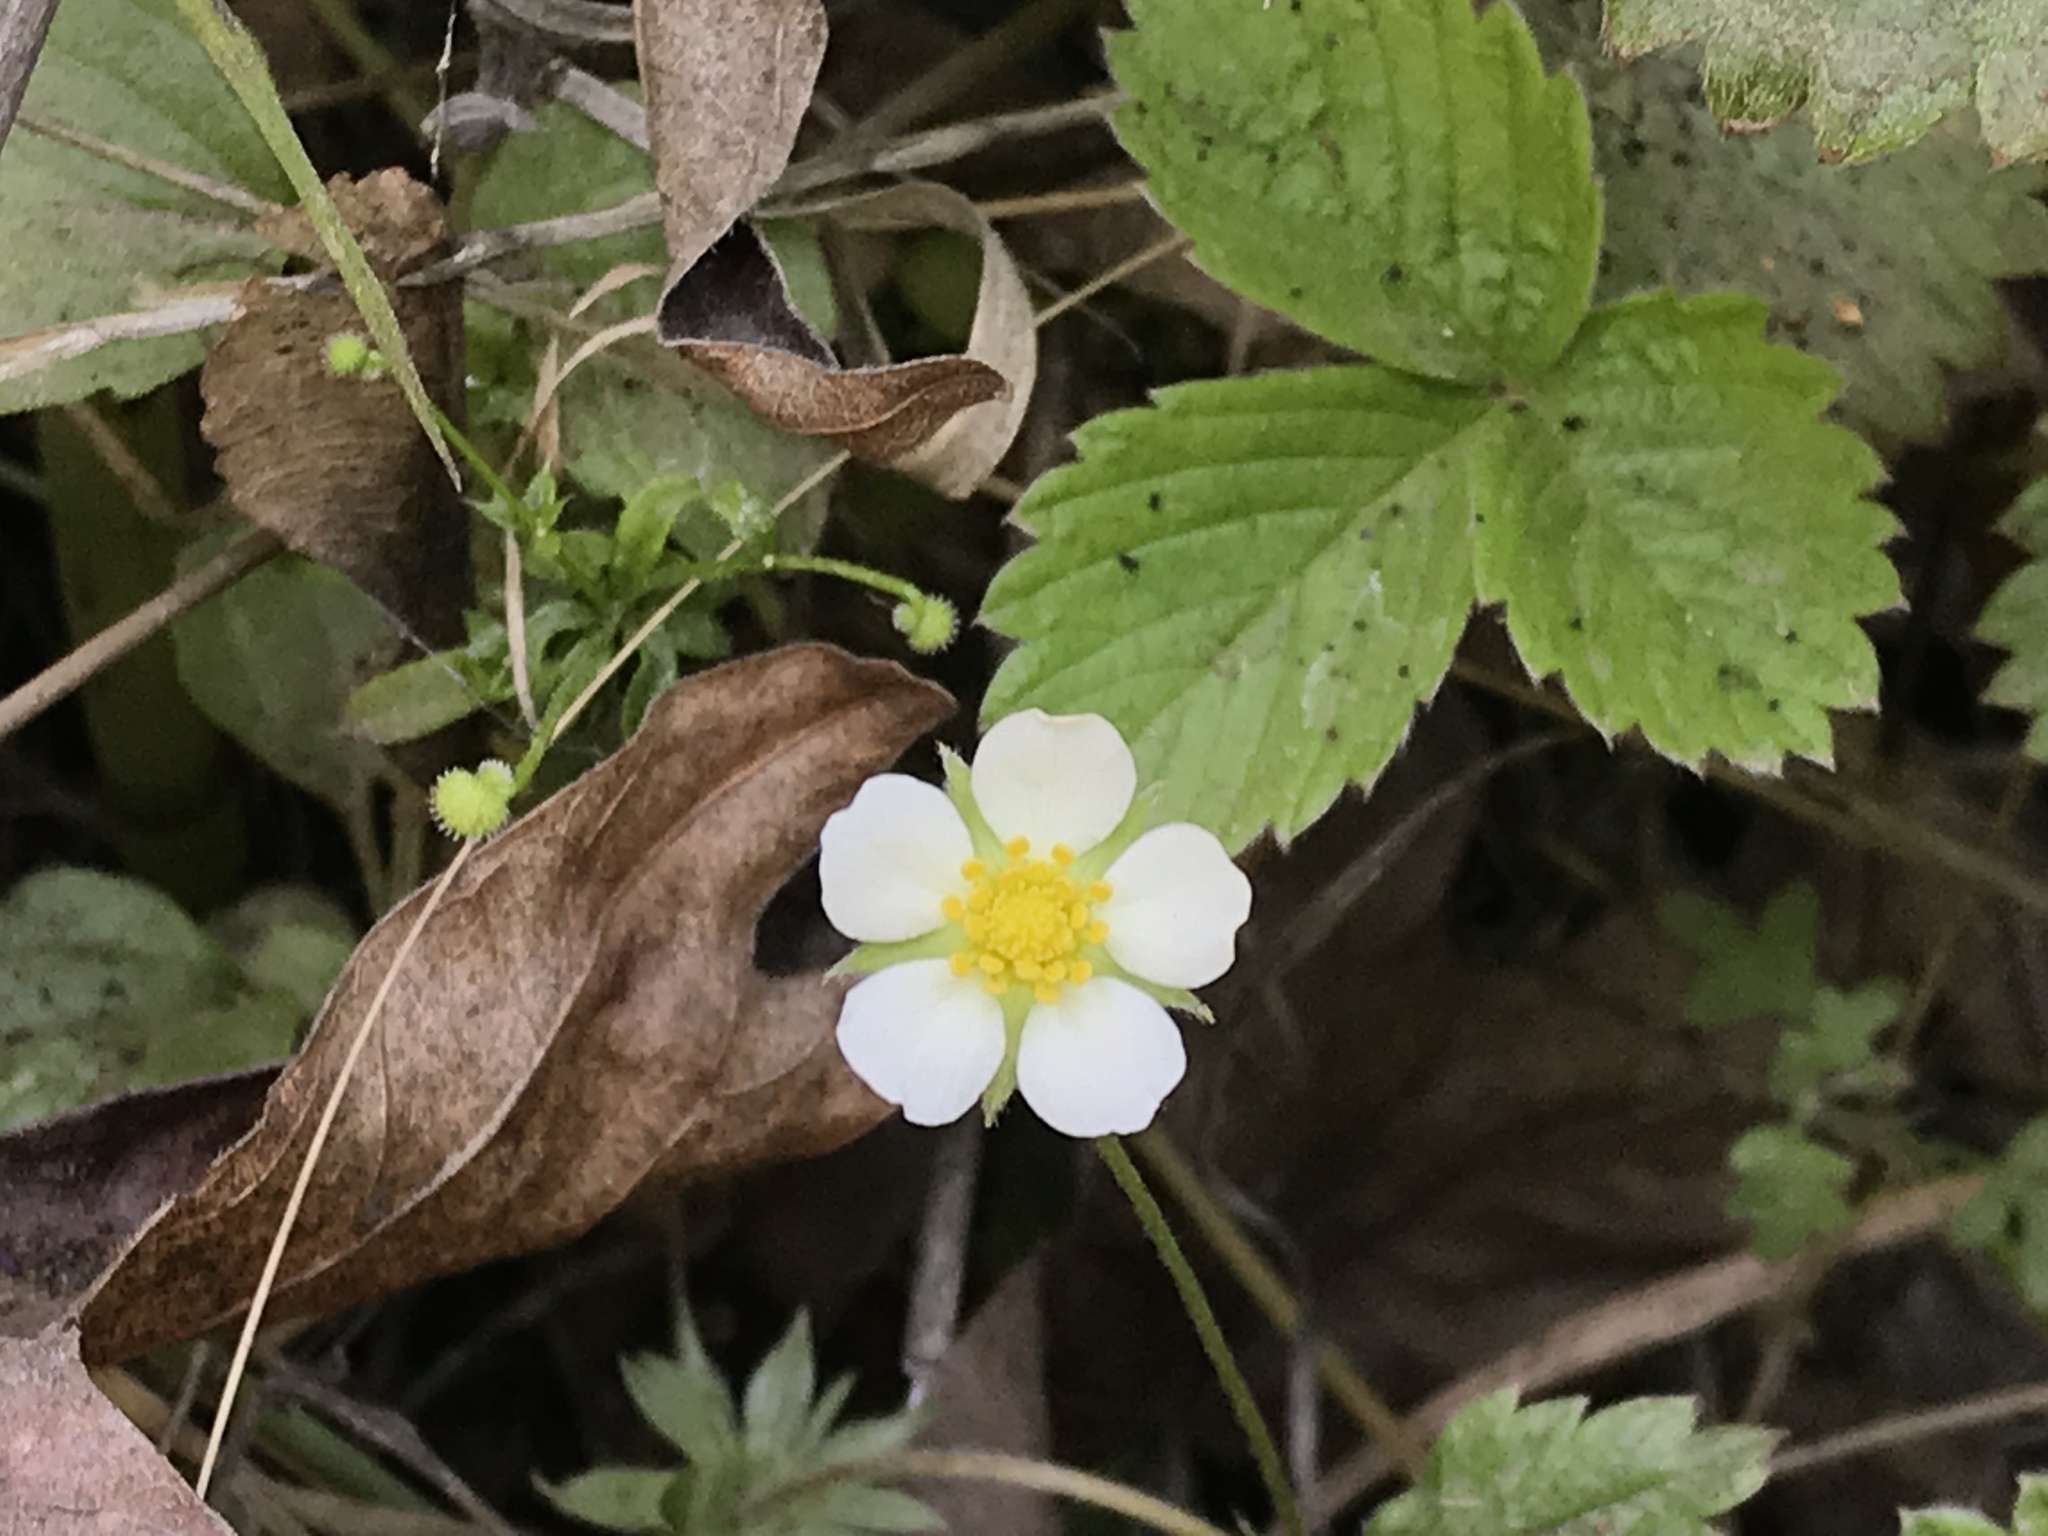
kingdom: Plantae
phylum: Tracheophyta
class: Magnoliopsida
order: Rosales
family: Rosaceae
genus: Fragaria
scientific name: Fragaria vesca
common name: Wild strawberry
